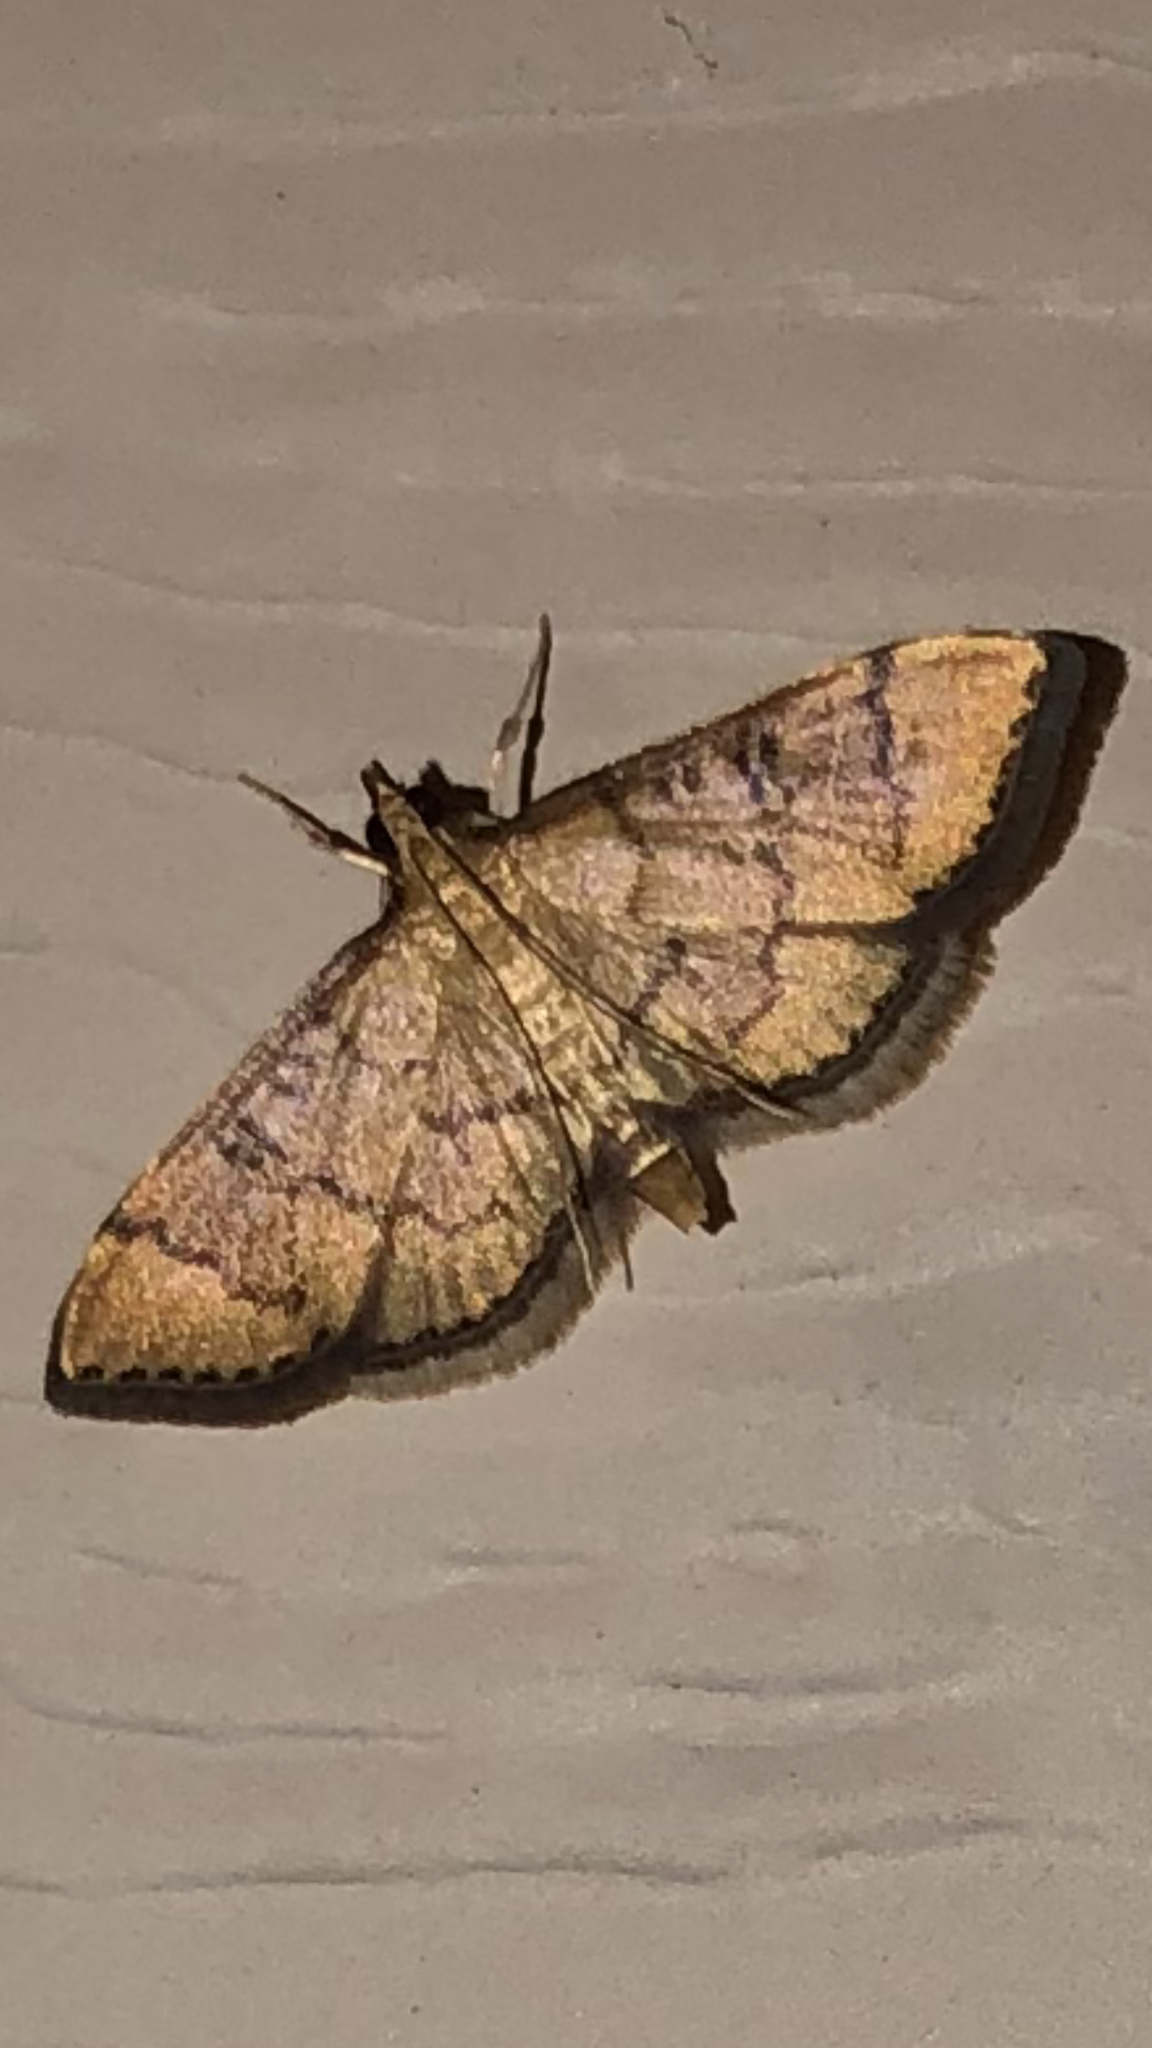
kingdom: Animalia
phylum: Arthropoda
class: Insecta
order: Lepidoptera
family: Crambidae
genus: Lamprosema
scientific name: Lamprosema Blepharomastix ranalis
